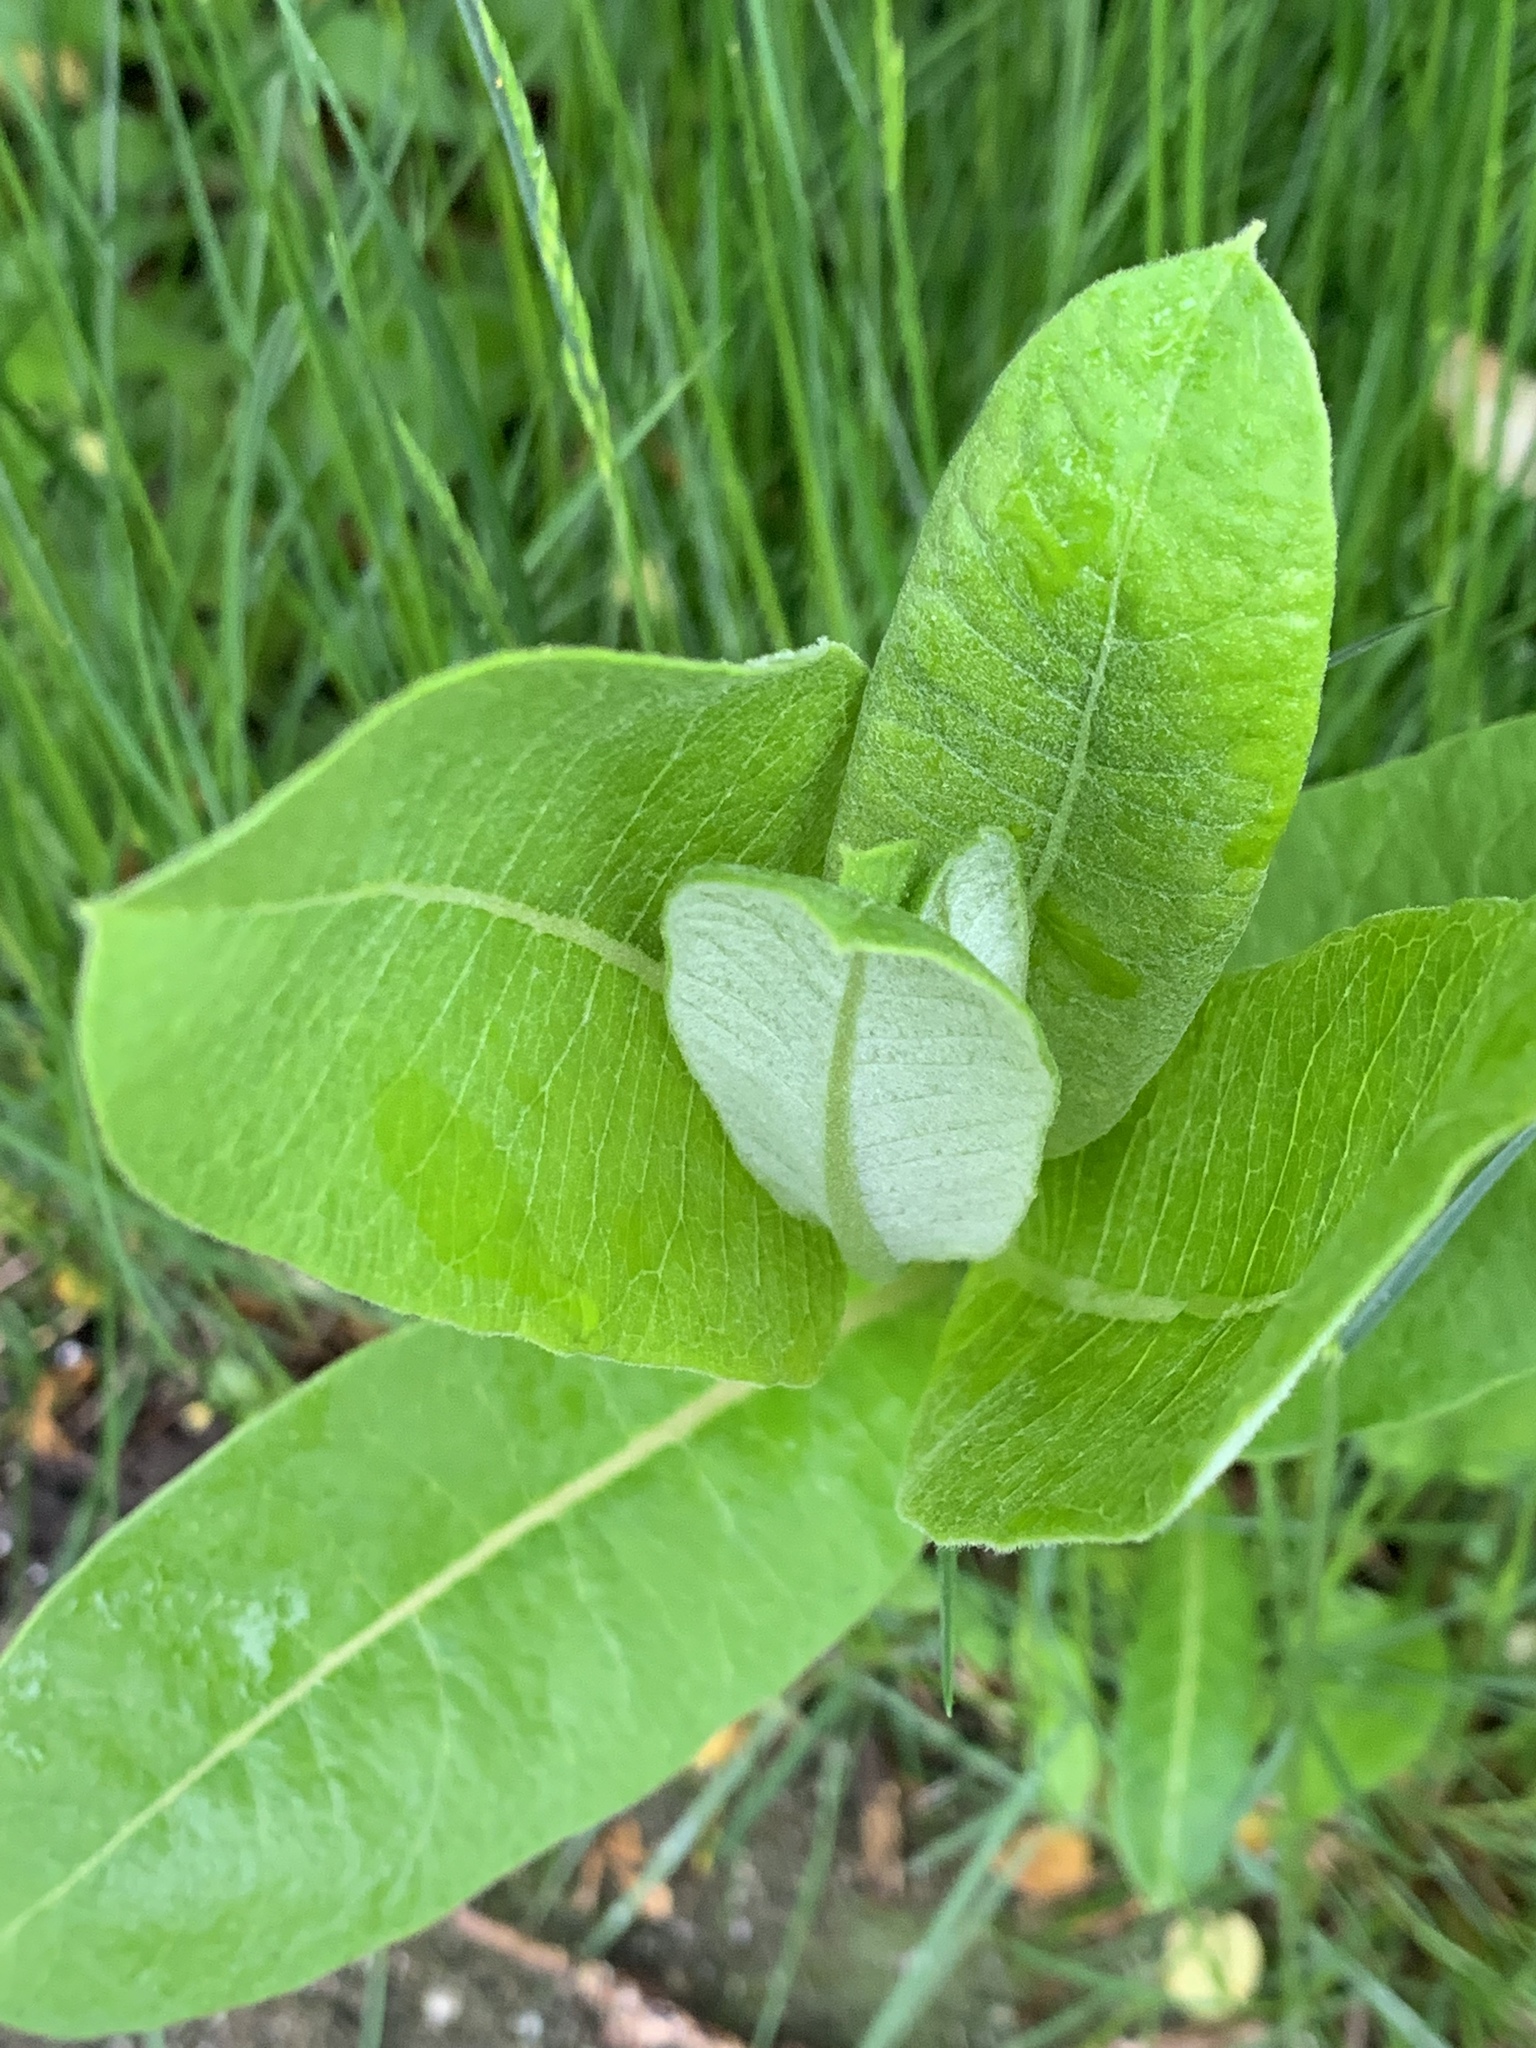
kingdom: Plantae
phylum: Tracheophyta
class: Magnoliopsida
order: Gentianales
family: Apocynaceae
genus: Asclepias
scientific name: Asclepias syriaca
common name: Common milkweed
